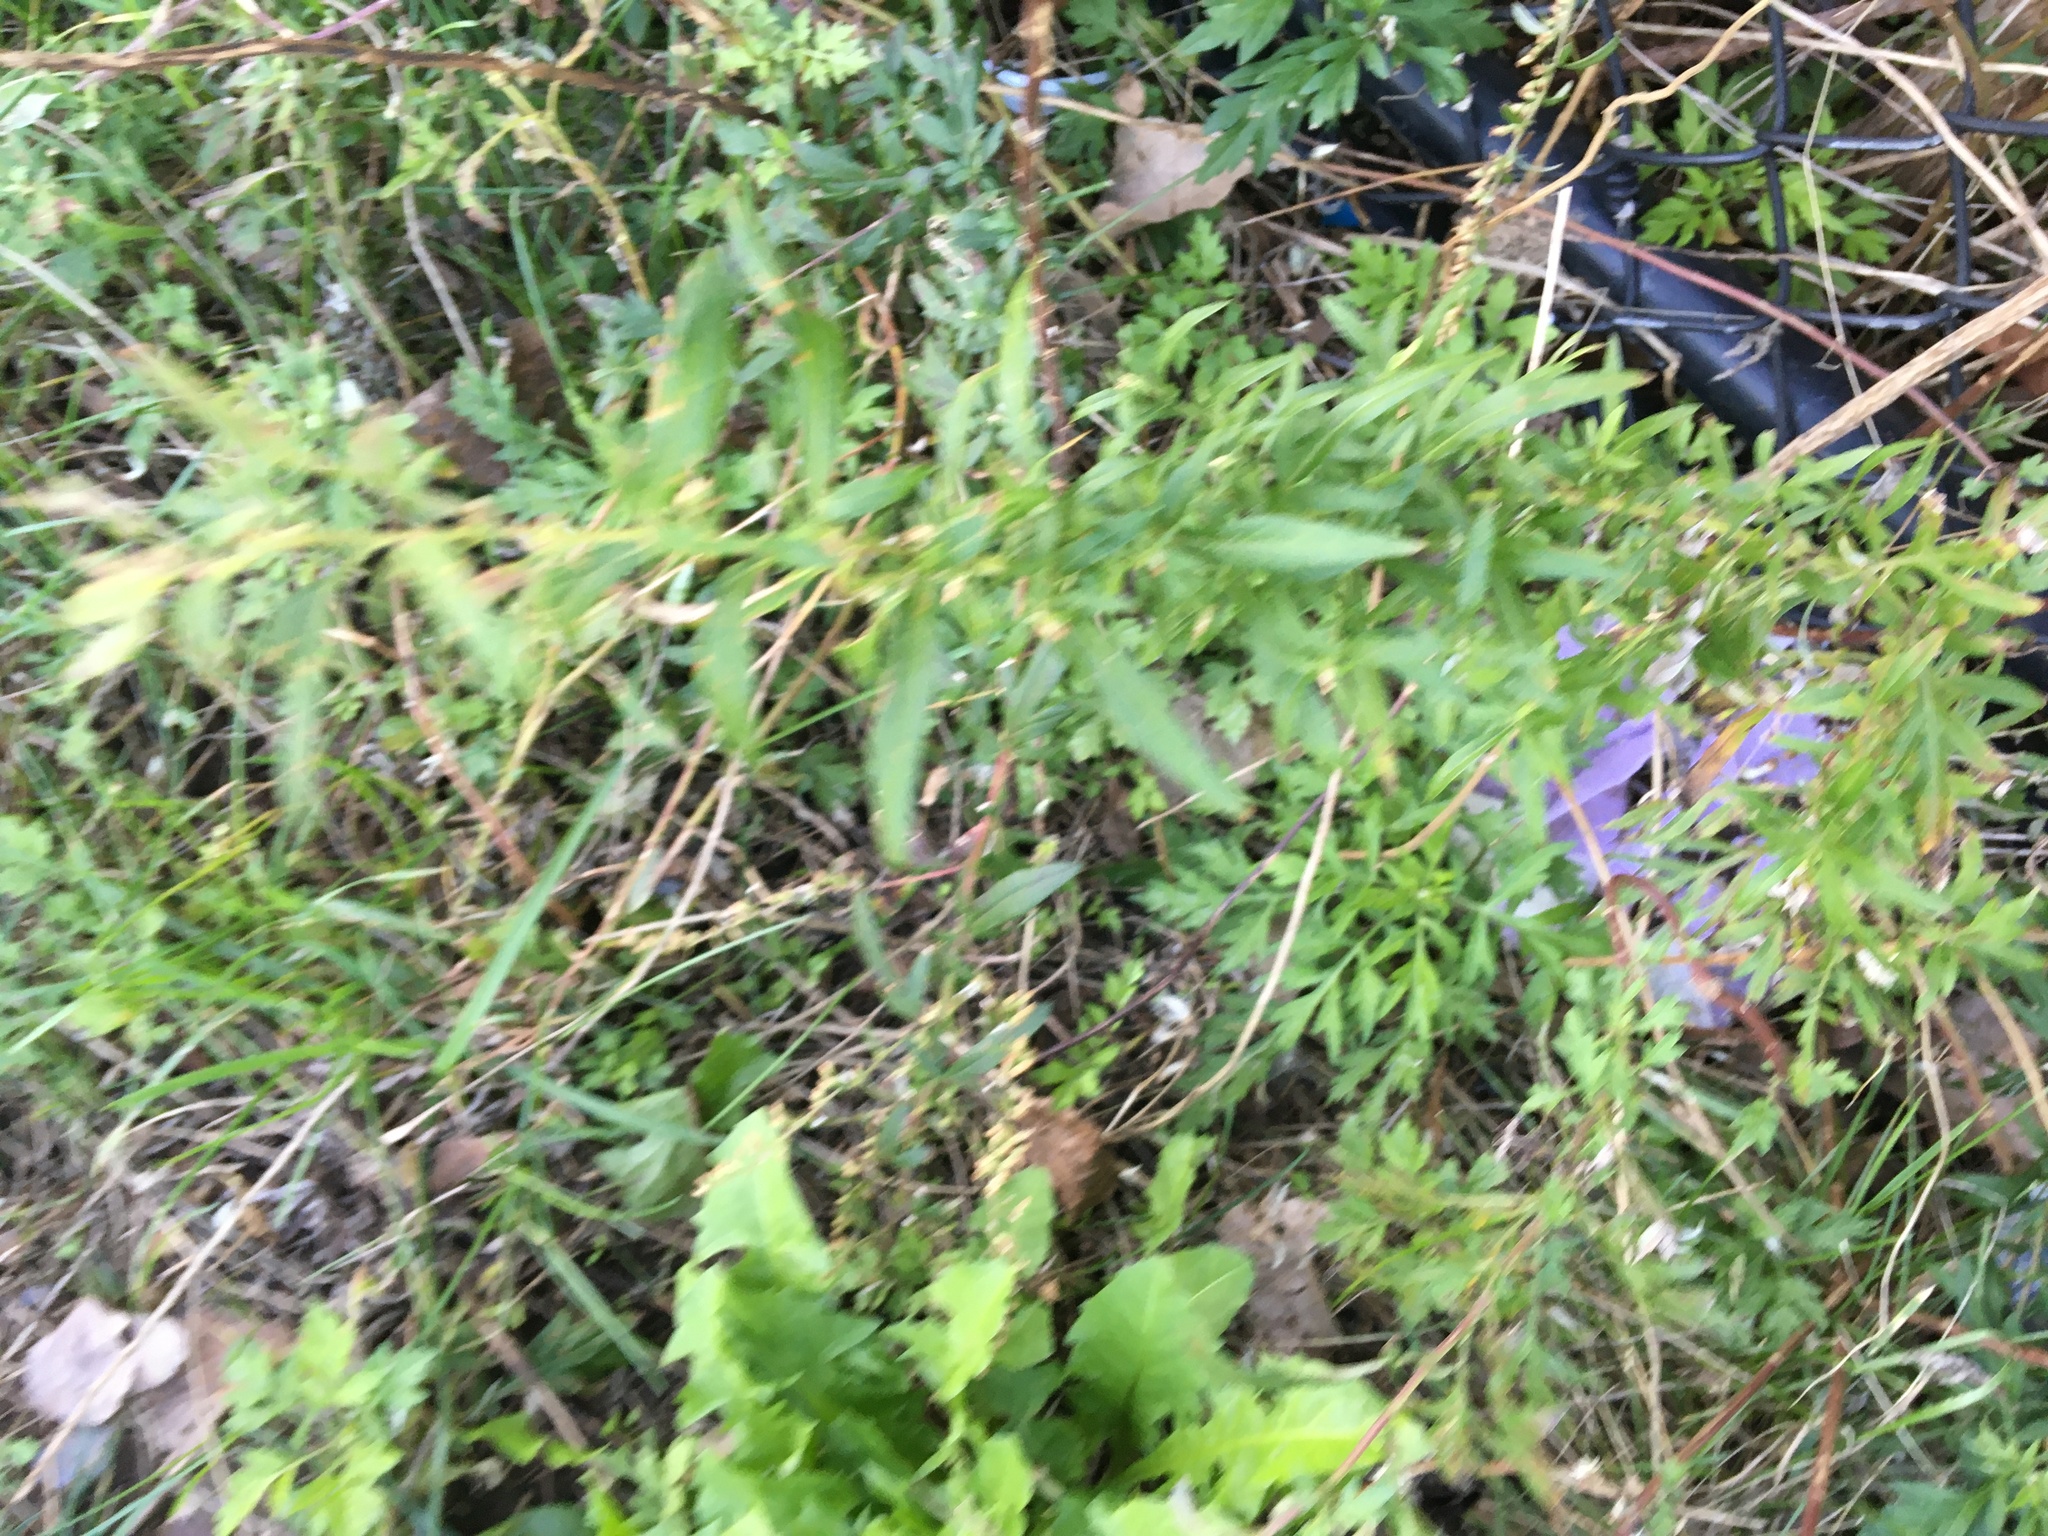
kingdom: Plantae
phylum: Tracheophyta
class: Magnoliopsida
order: Asterales
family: Asteraceae
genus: Artemisia
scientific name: Artemisia vulgaris
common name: Mugwort
